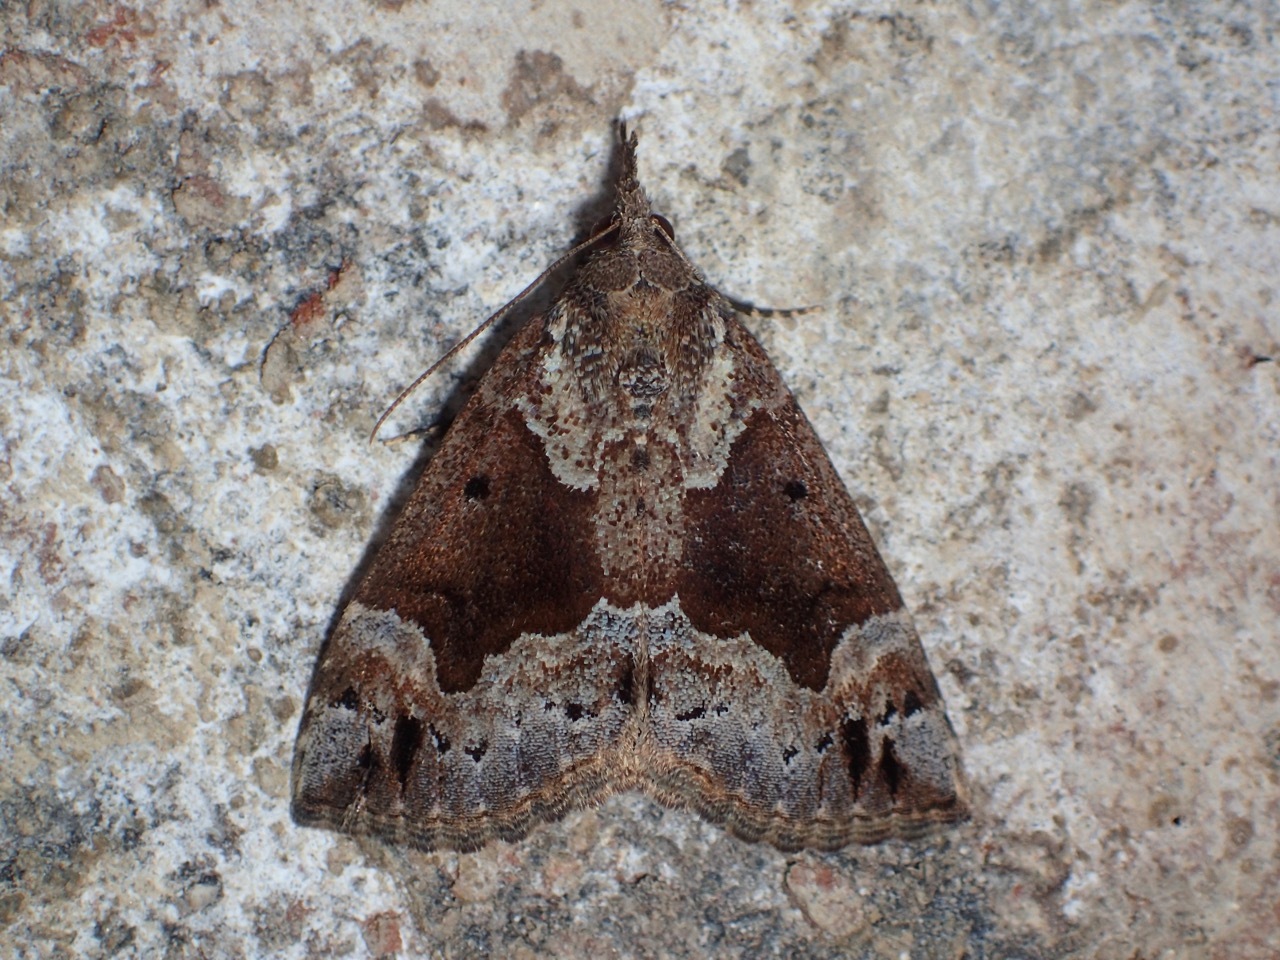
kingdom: Animalia
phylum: Arthropoda
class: Insecta
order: Lepidoptera
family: Erebidae
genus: Hypena
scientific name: Hypena palparia
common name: Mottled bomolocha moth
